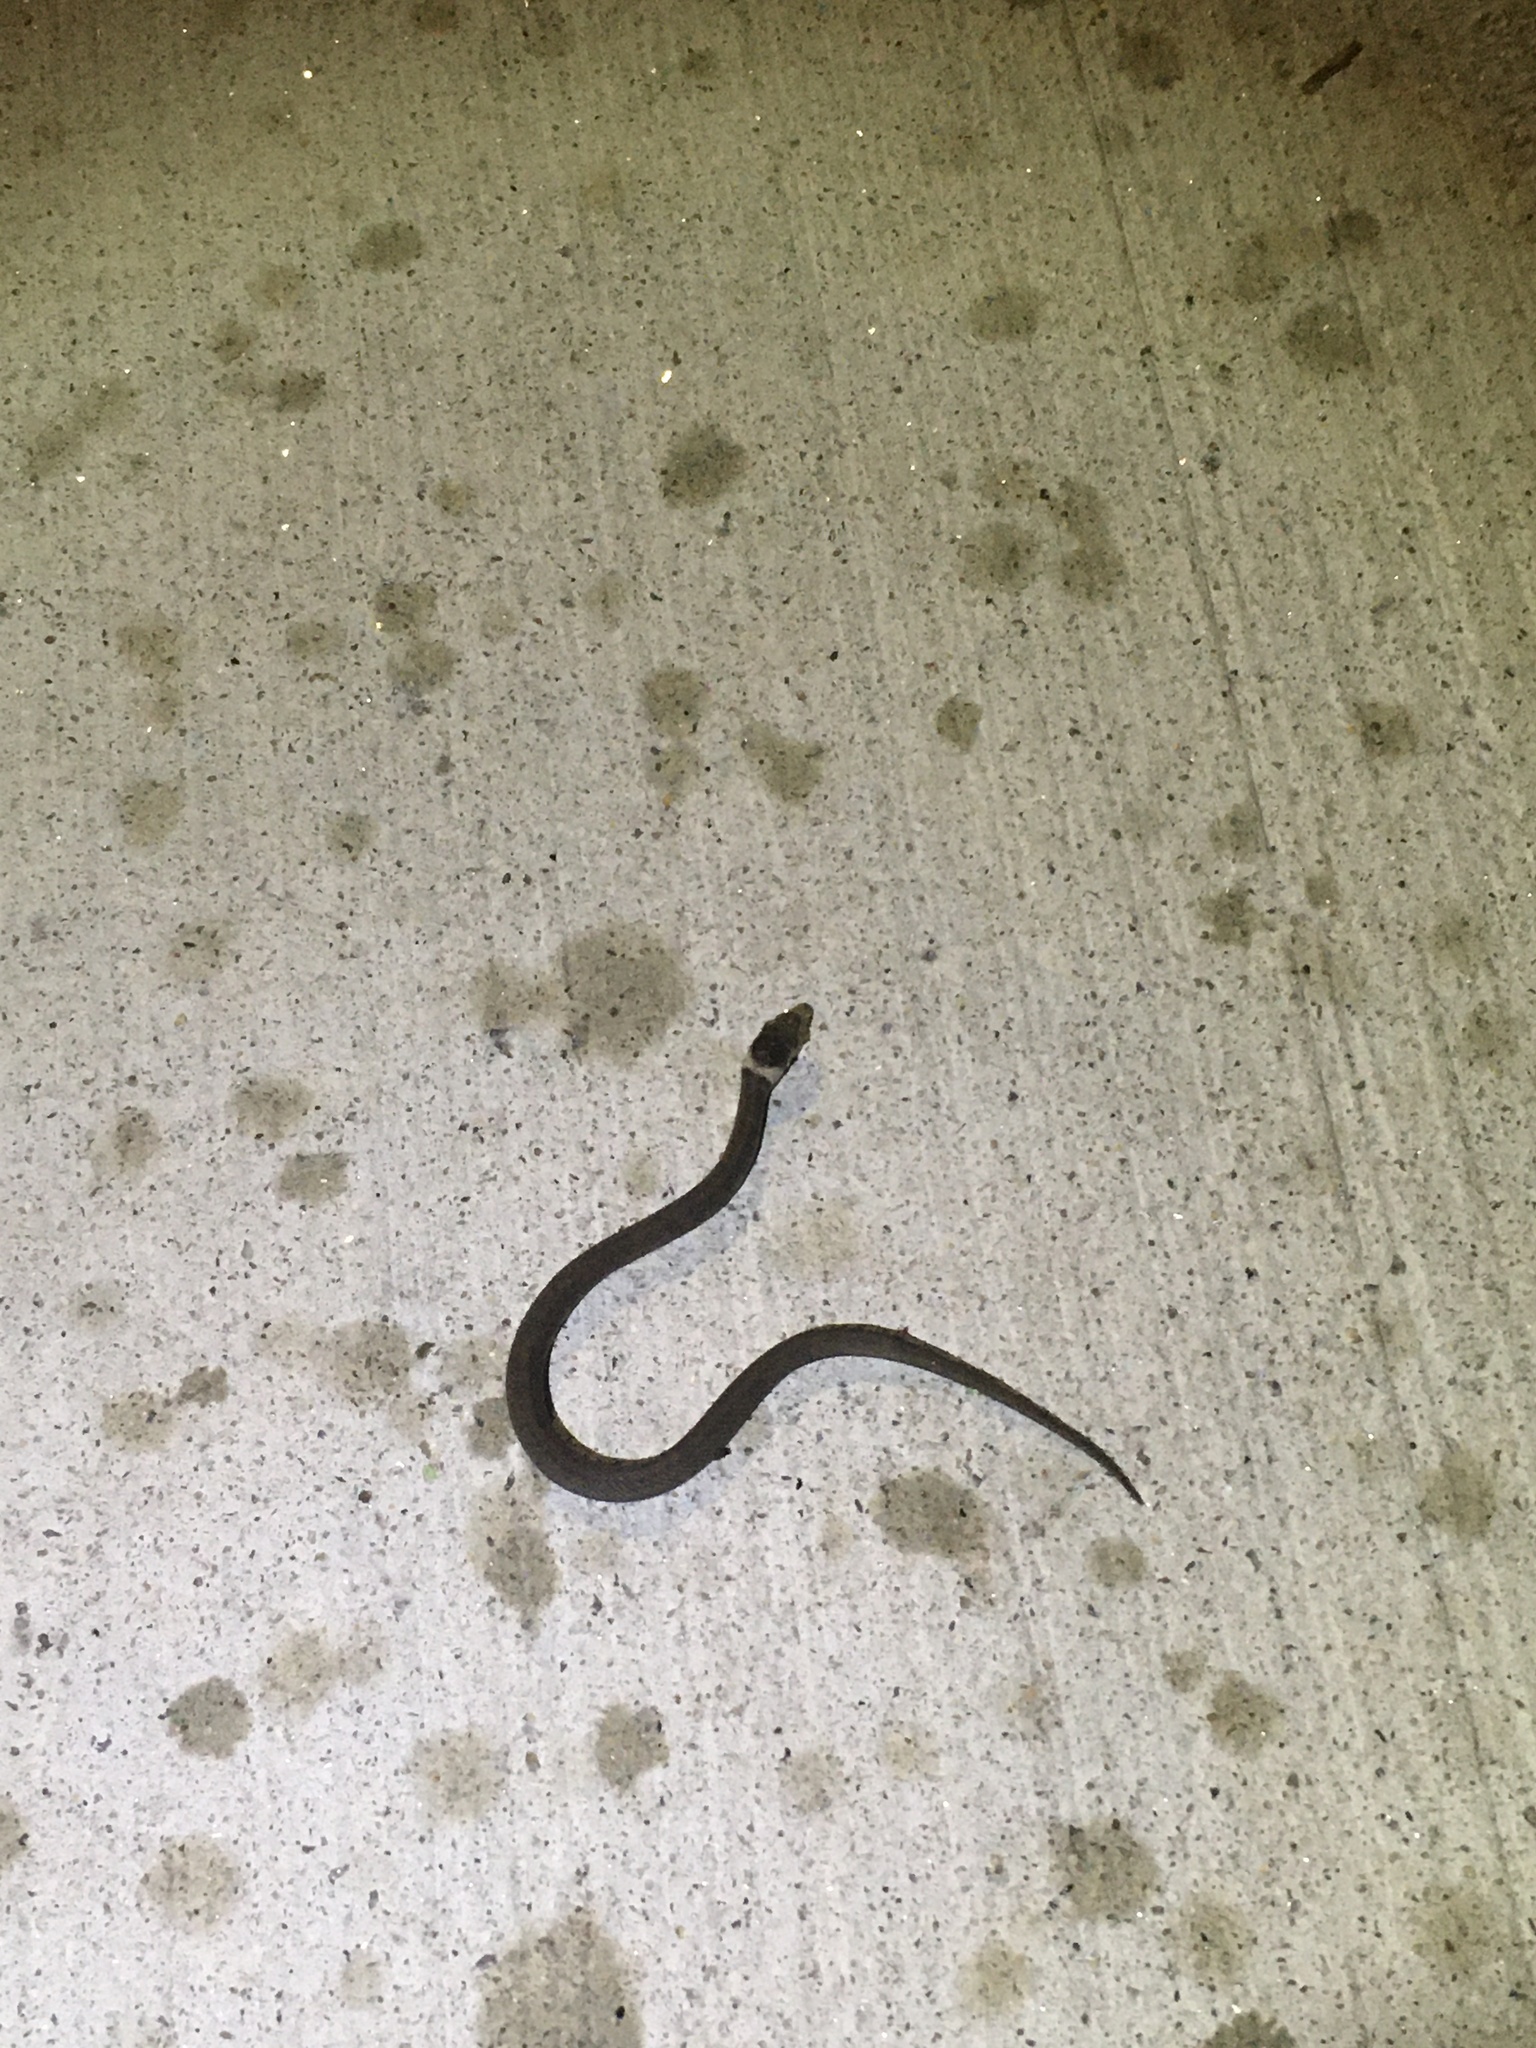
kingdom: Animalia
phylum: Chordata
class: Squamata
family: Colubridae
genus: Storeria
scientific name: Storeria dekayi
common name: (dekay’s) brown snake
